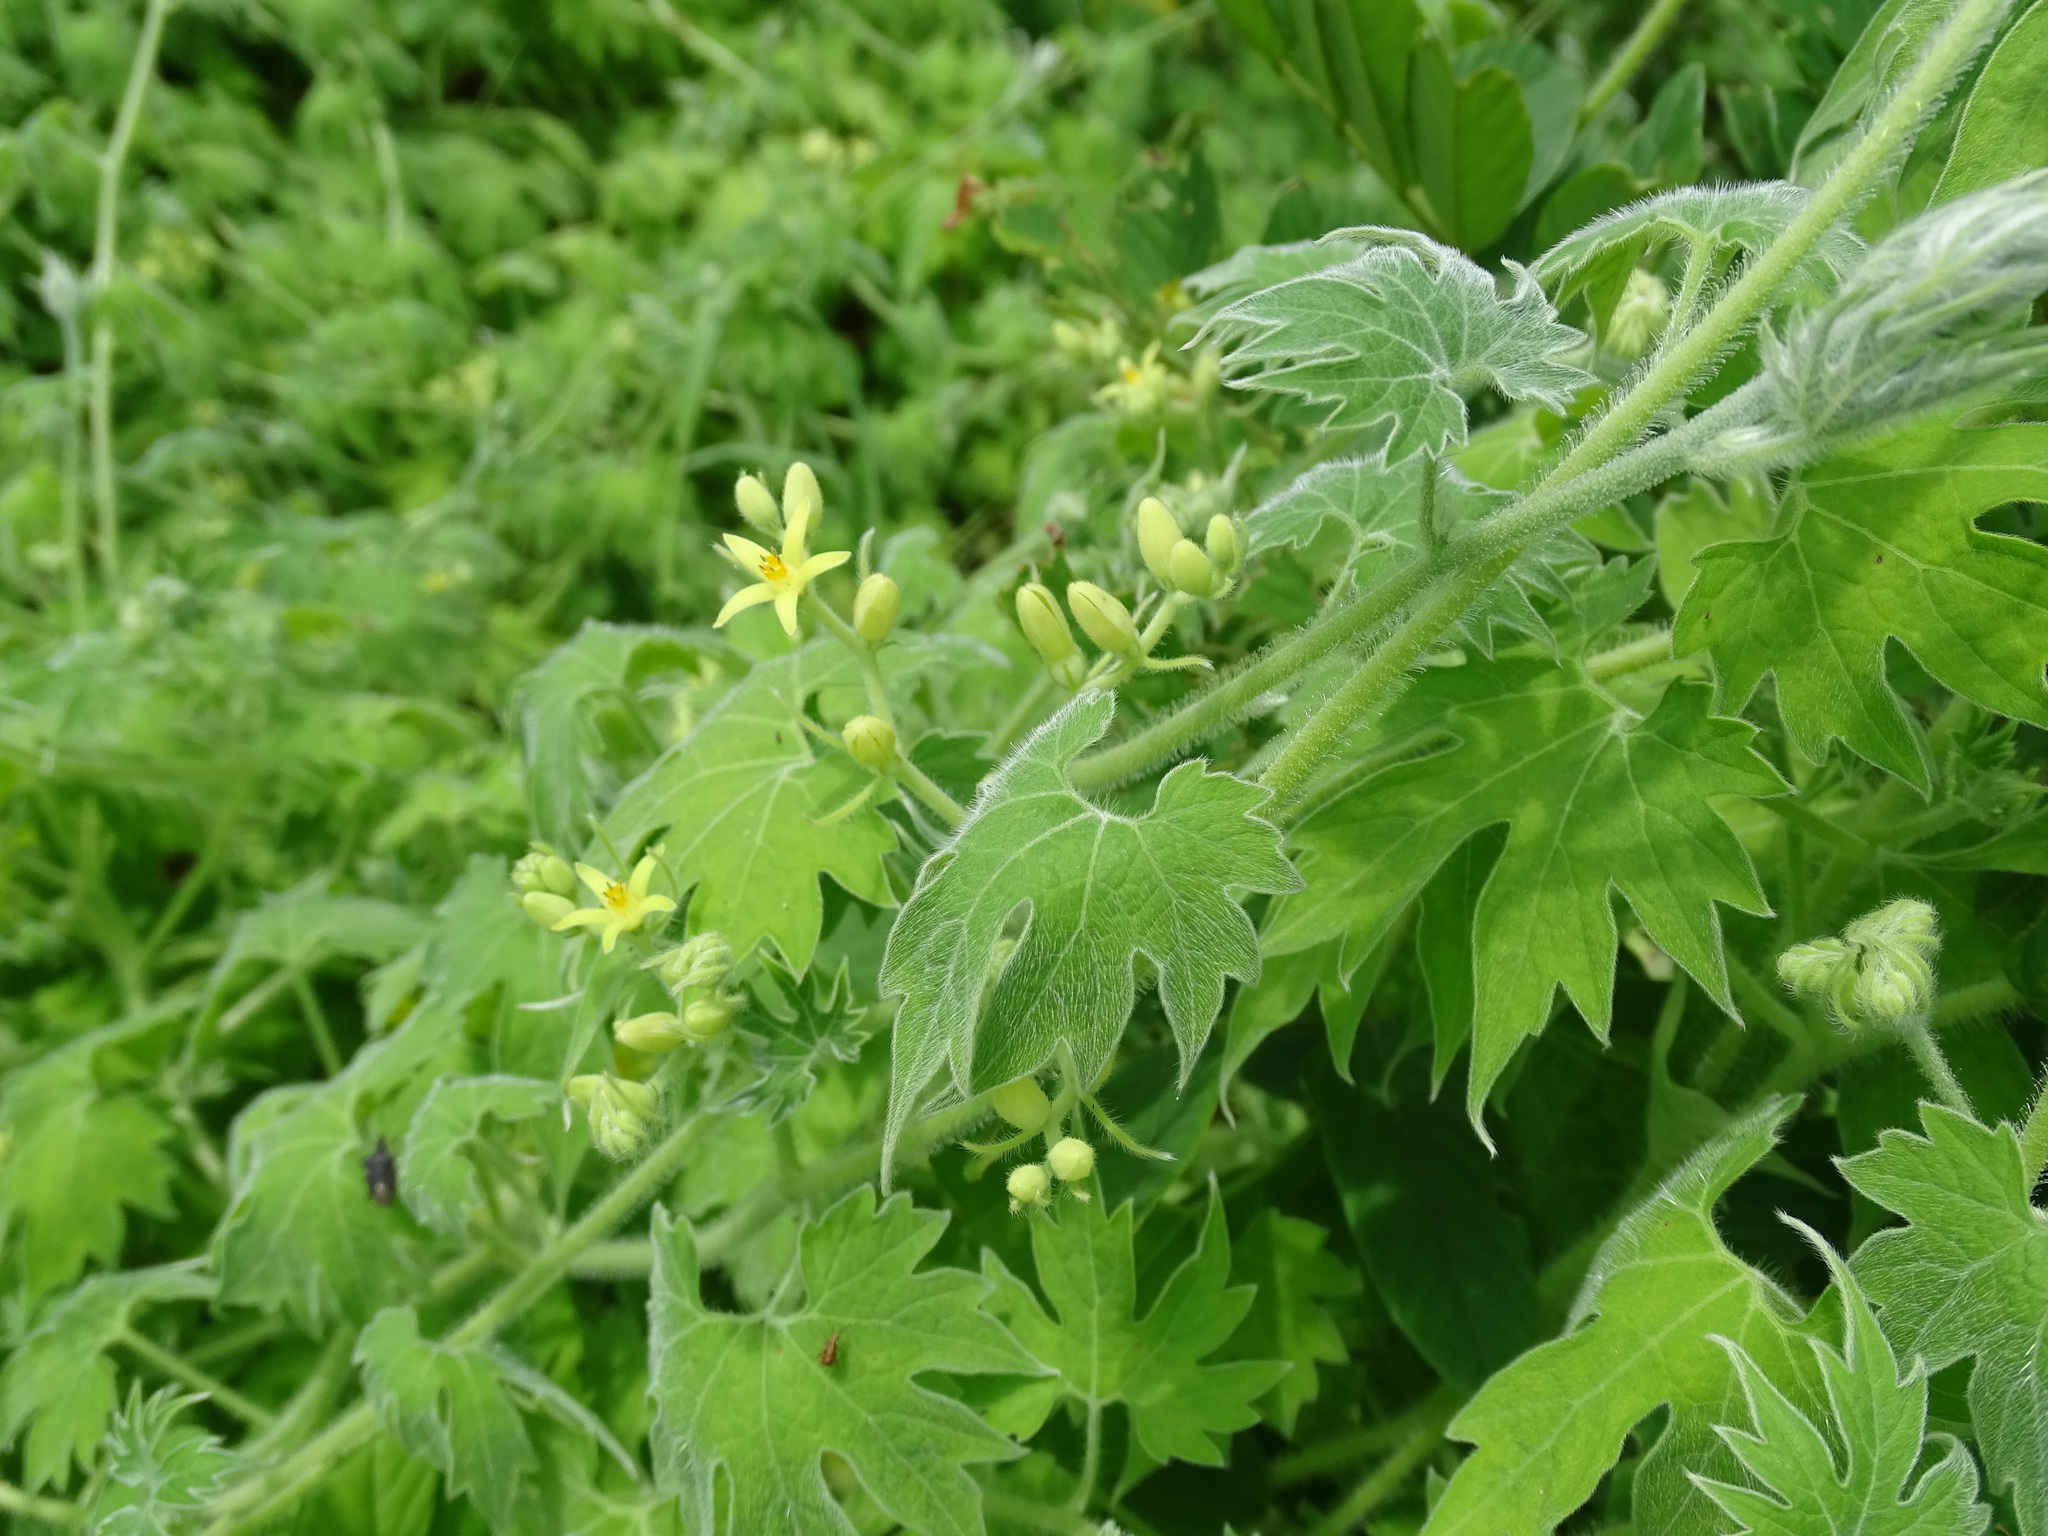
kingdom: Plantae
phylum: Tracheophyta
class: Magnoliopsida
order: Cornales
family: Loasaceae
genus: Gronovia
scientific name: Gronovia scandens
